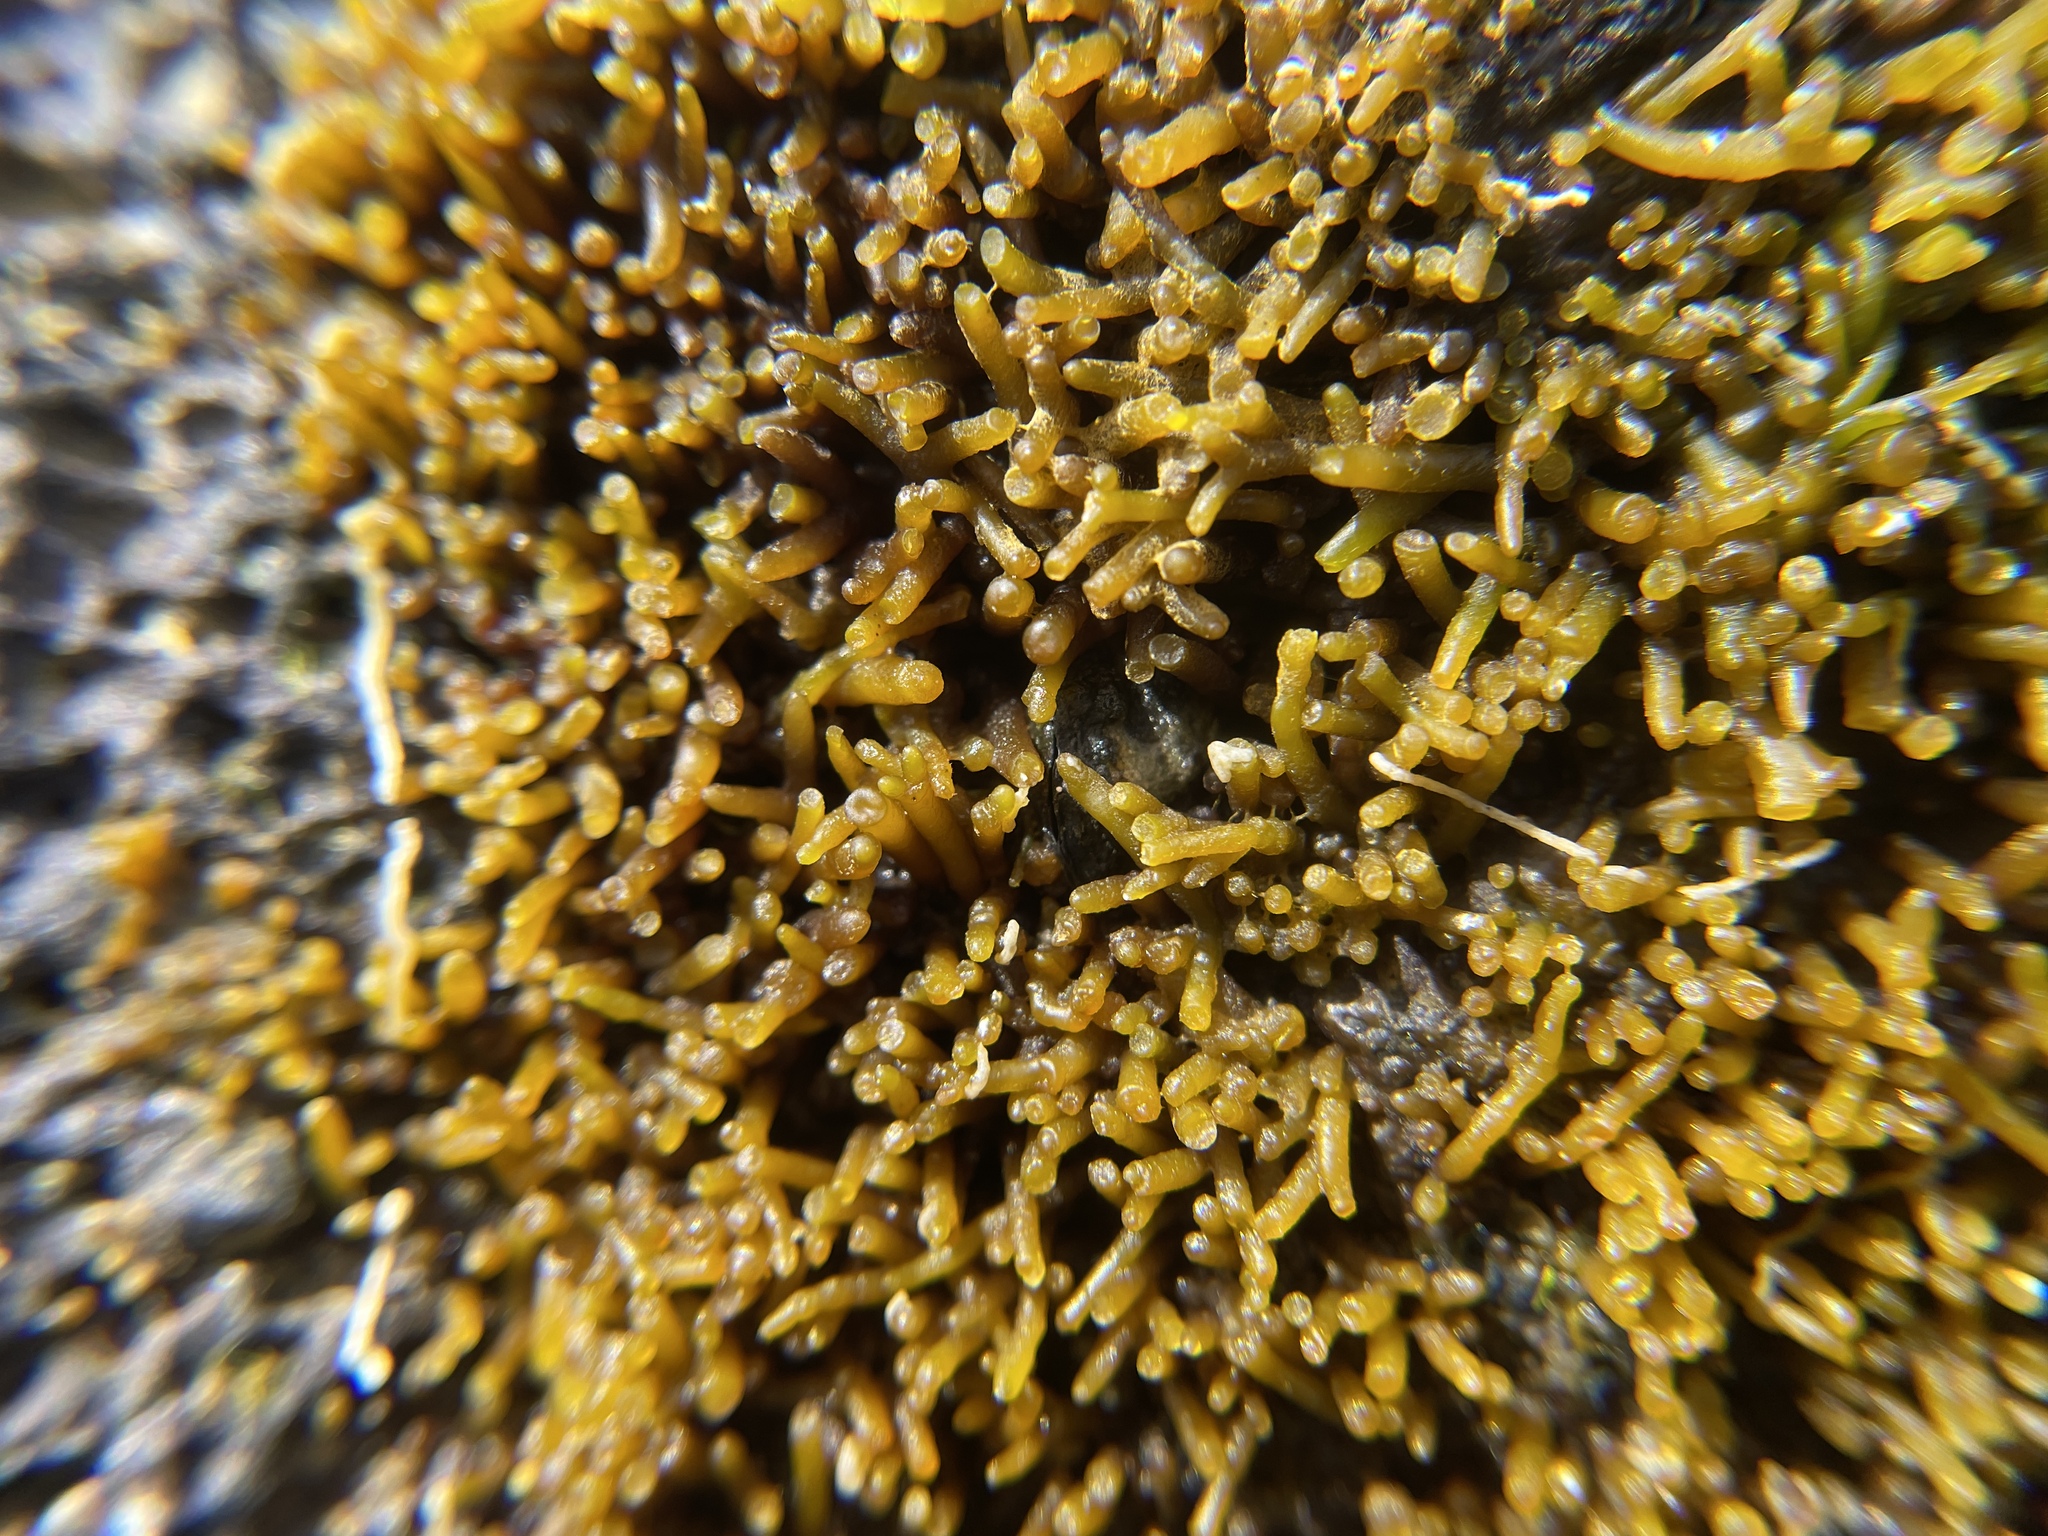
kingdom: Plantae
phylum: Rhodophyta
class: Florideophyceae
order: Gigartinales
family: Phyllophoraceae
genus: Gymnogongrus
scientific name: Gymnogongrus durvillei
